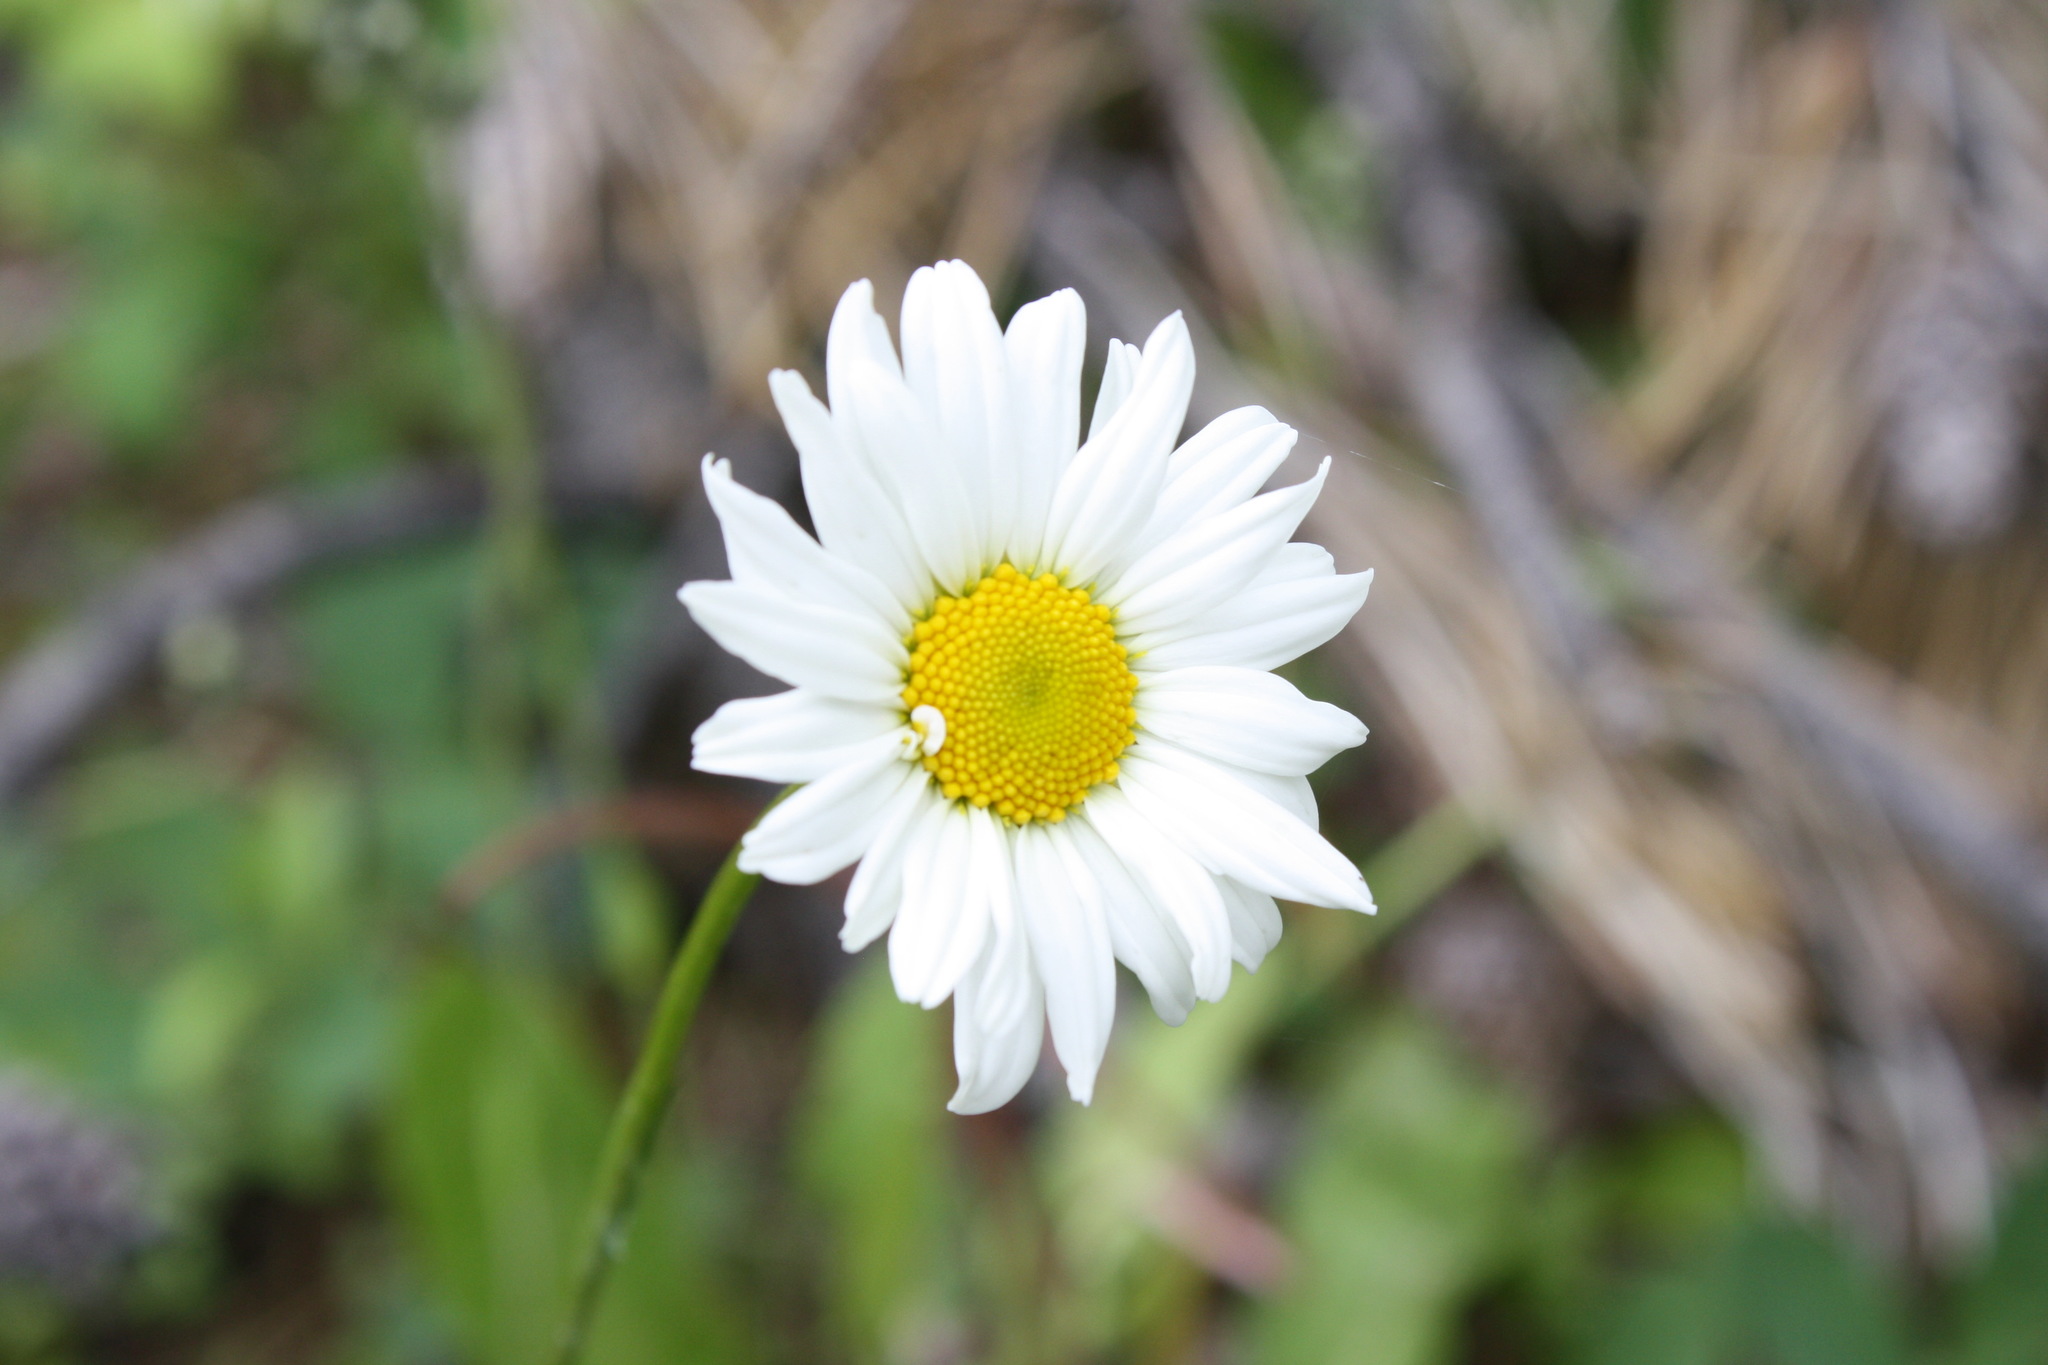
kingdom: Plantae
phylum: Tracheophyta
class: Magnoliopsida
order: Asterales
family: Asteraceae
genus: Leucanthemum
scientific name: Leucanthemum vulgare
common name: Oxeye daisy
